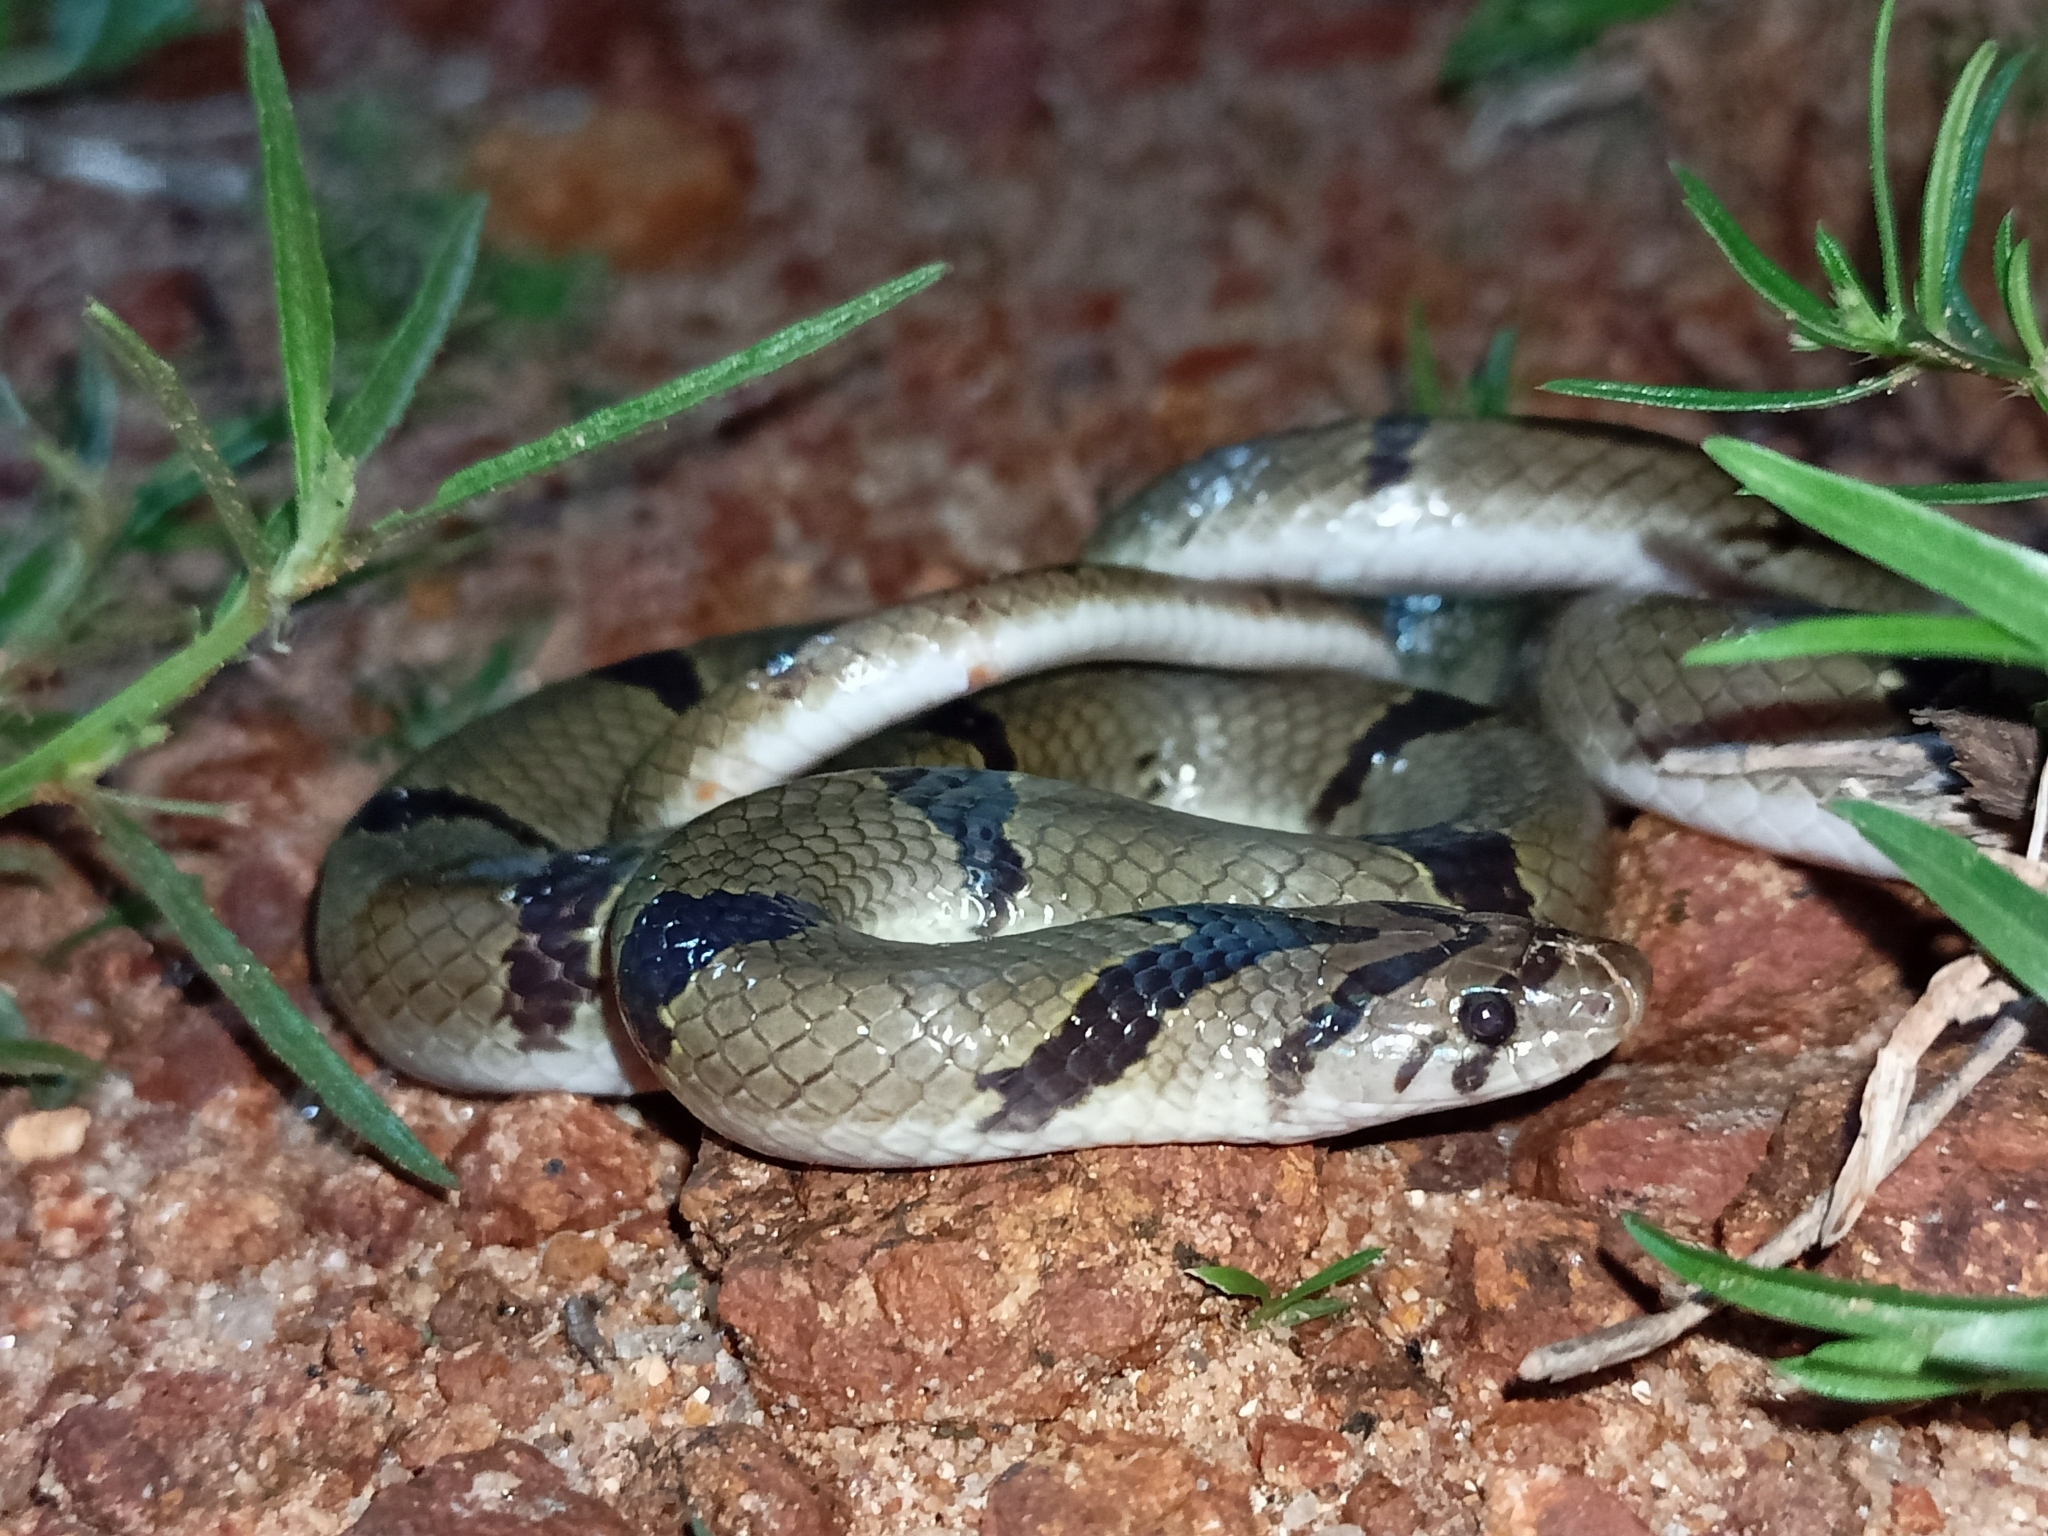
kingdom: Animalia
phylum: Chordata
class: Squamata
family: Colubridae
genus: Oligodon
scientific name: Oligodon arnensis
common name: Banded kukri
